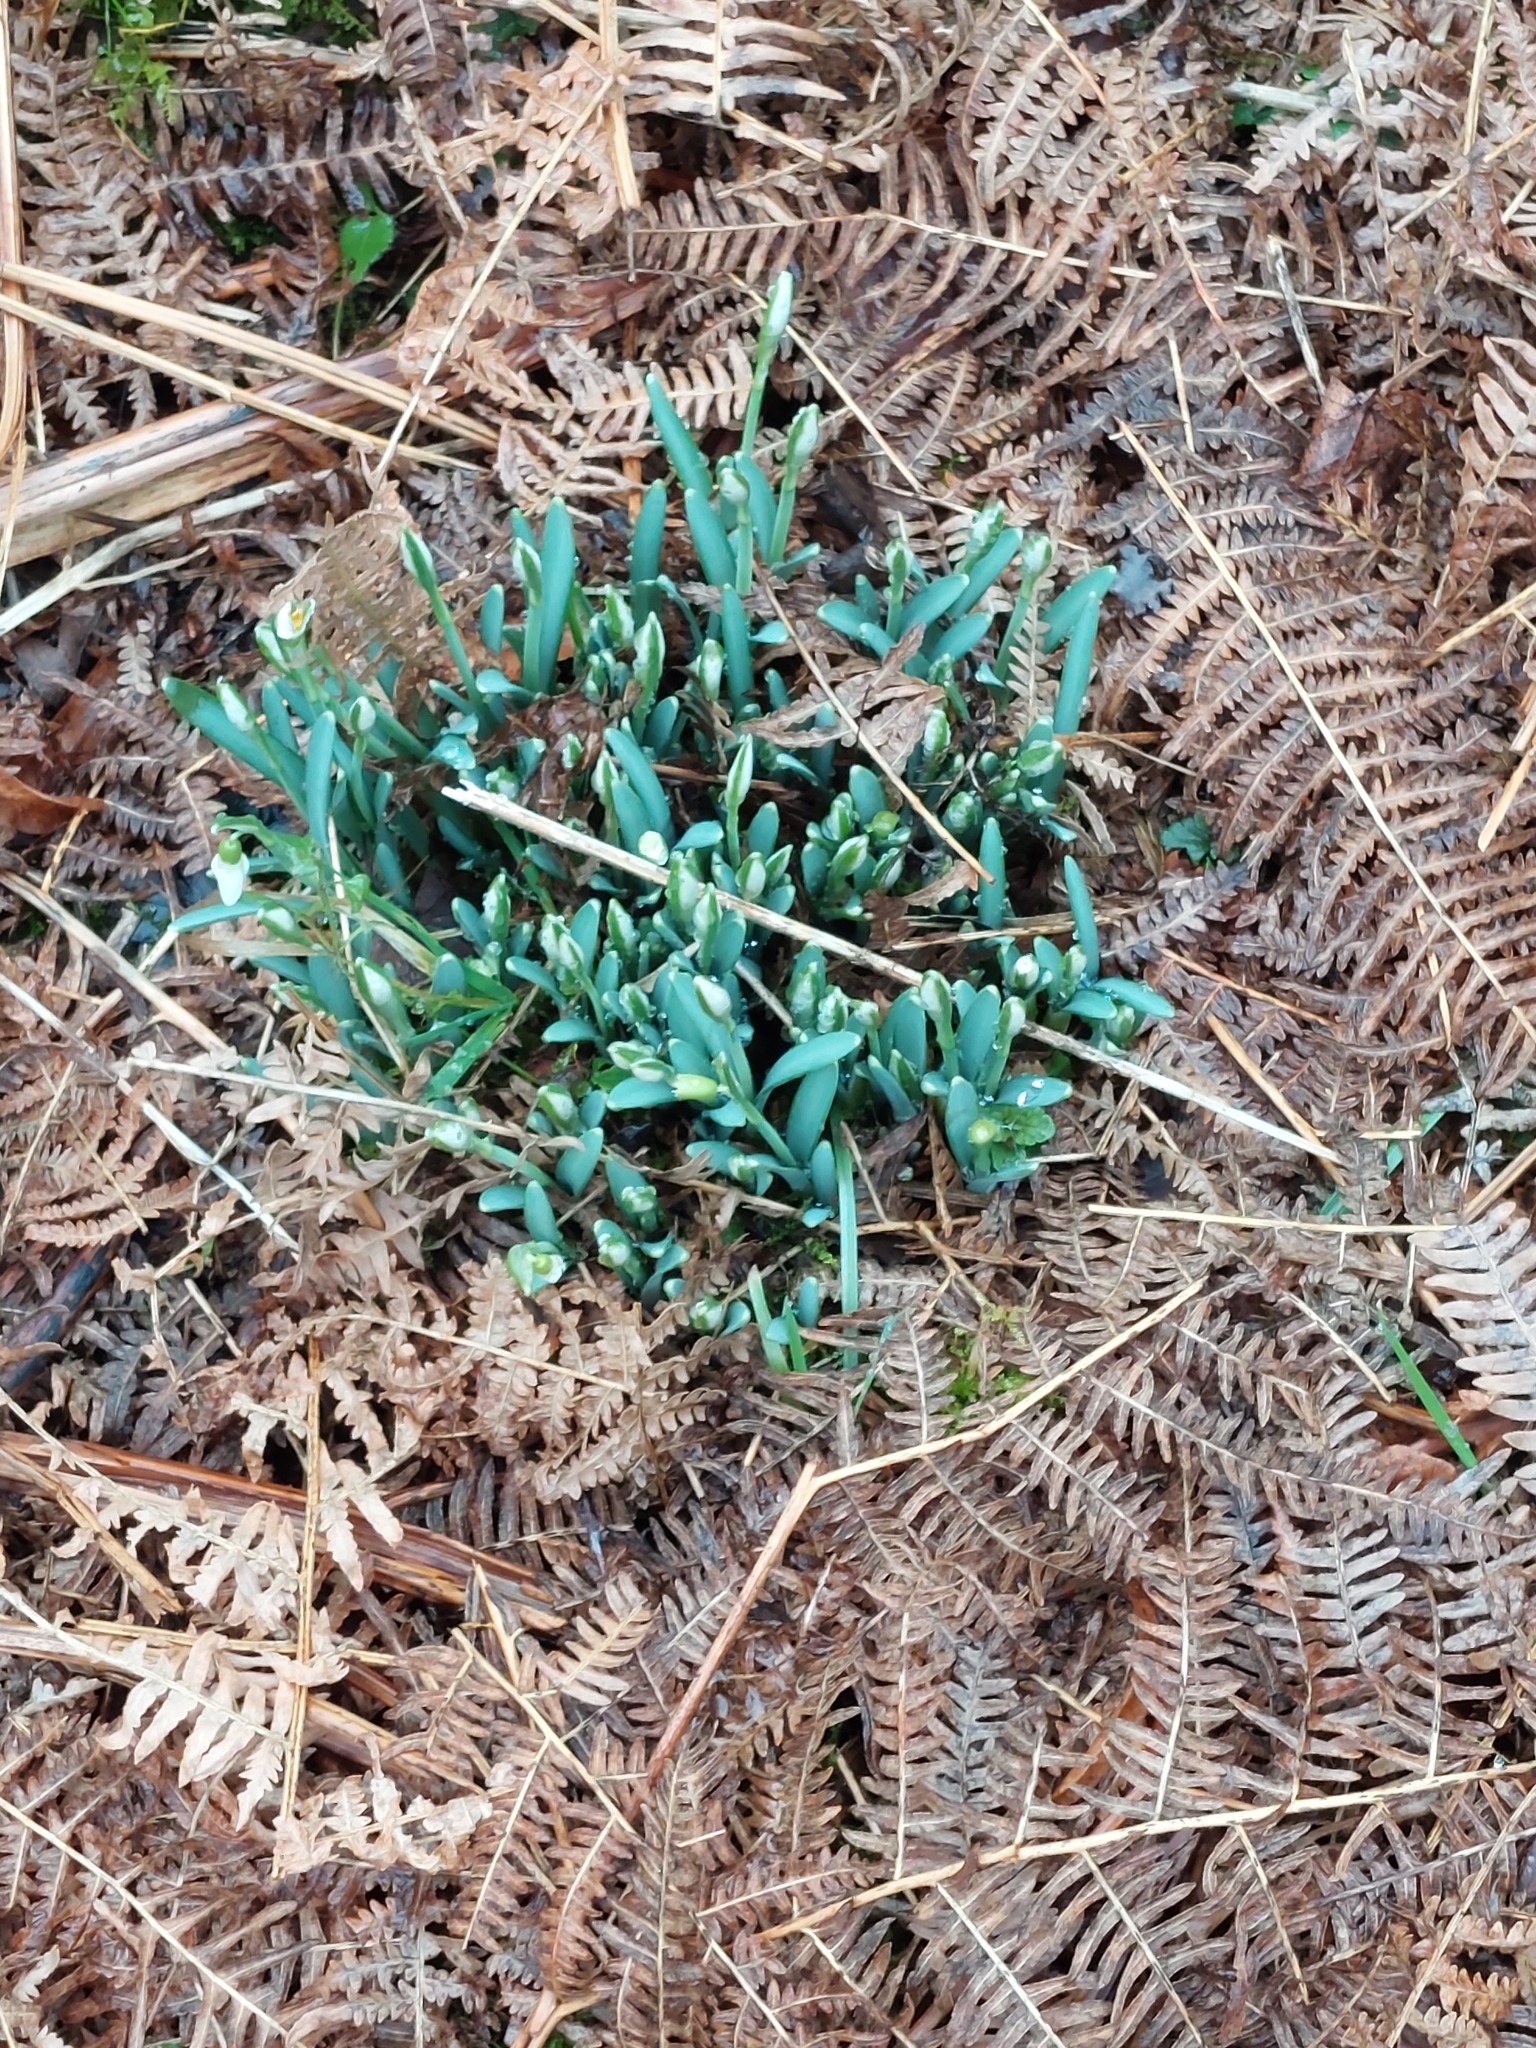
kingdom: Plantae
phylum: Tracheophyta
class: Liliopsida
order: Asparagales
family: Amaryllidaceae
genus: Galanthus
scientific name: Galanthus nivalis
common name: Snowdrop
